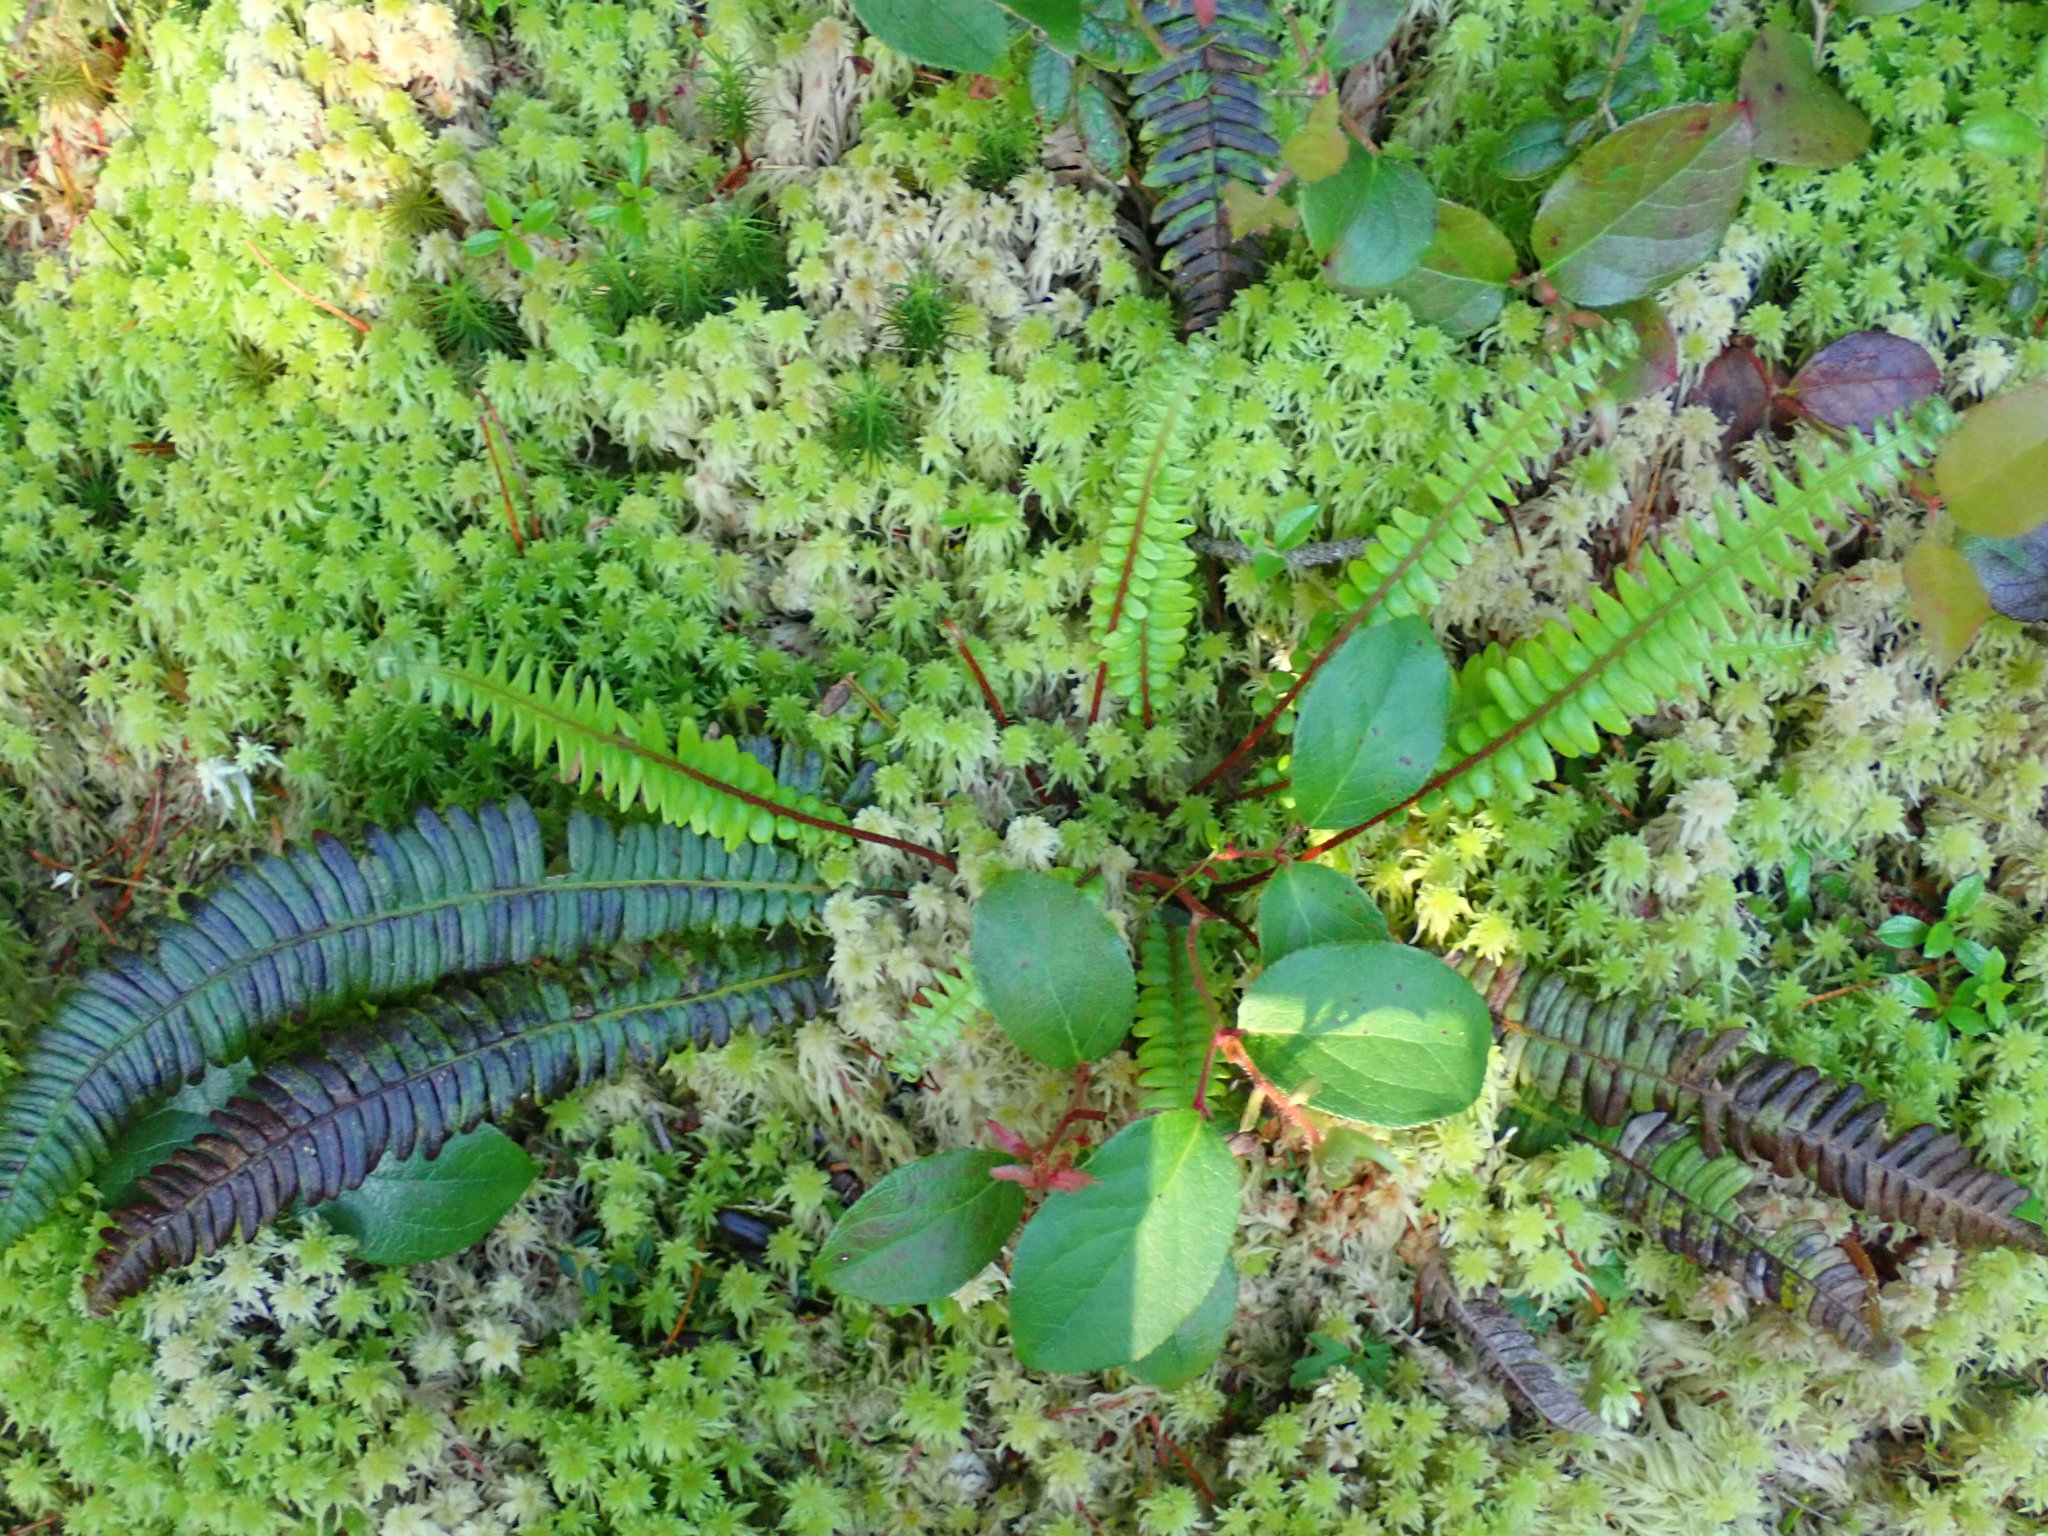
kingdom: Plantae
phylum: Tracheophyta
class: Polypodiopsida
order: Polypodiales
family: Blechnaceae
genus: Struthiopteris
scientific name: Struthiopteris spicant
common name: Deer fern
